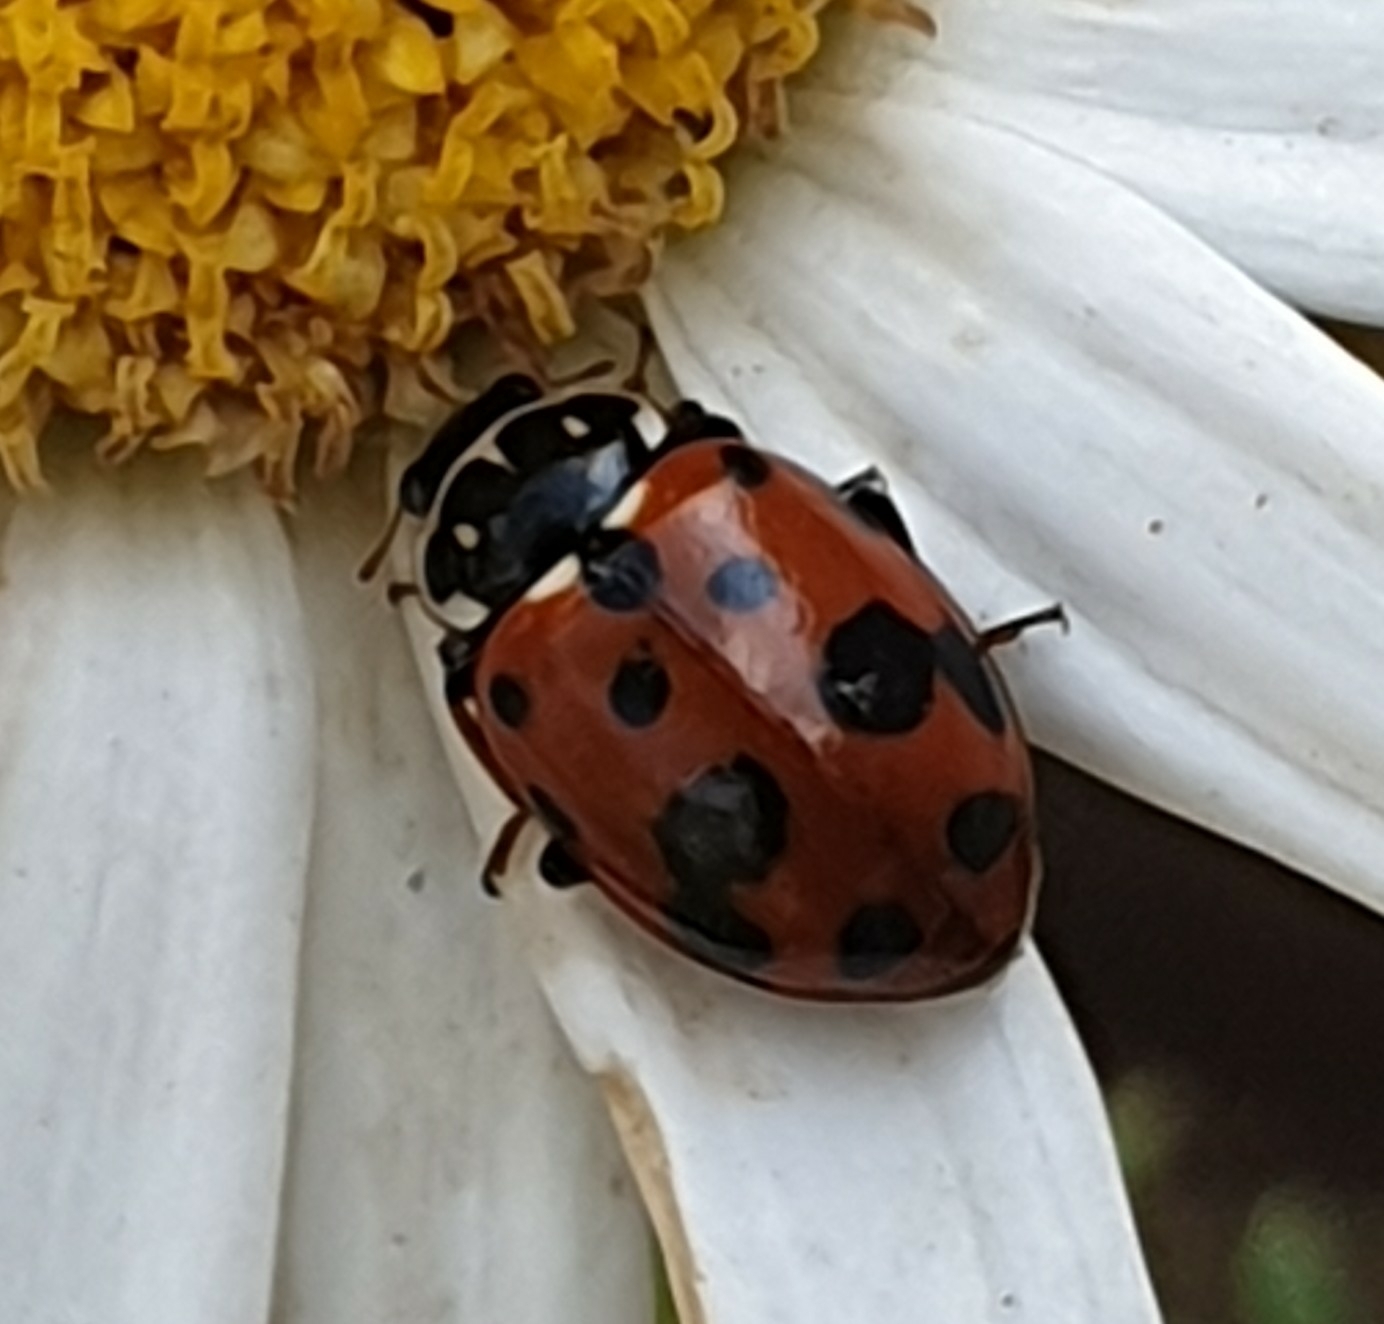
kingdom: Animalia
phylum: Arthropoda
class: Insecta
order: Coleoptera
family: Coccinellidae
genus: Hippodamia
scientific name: Hippodamia variegata
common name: Ladybird beetle
